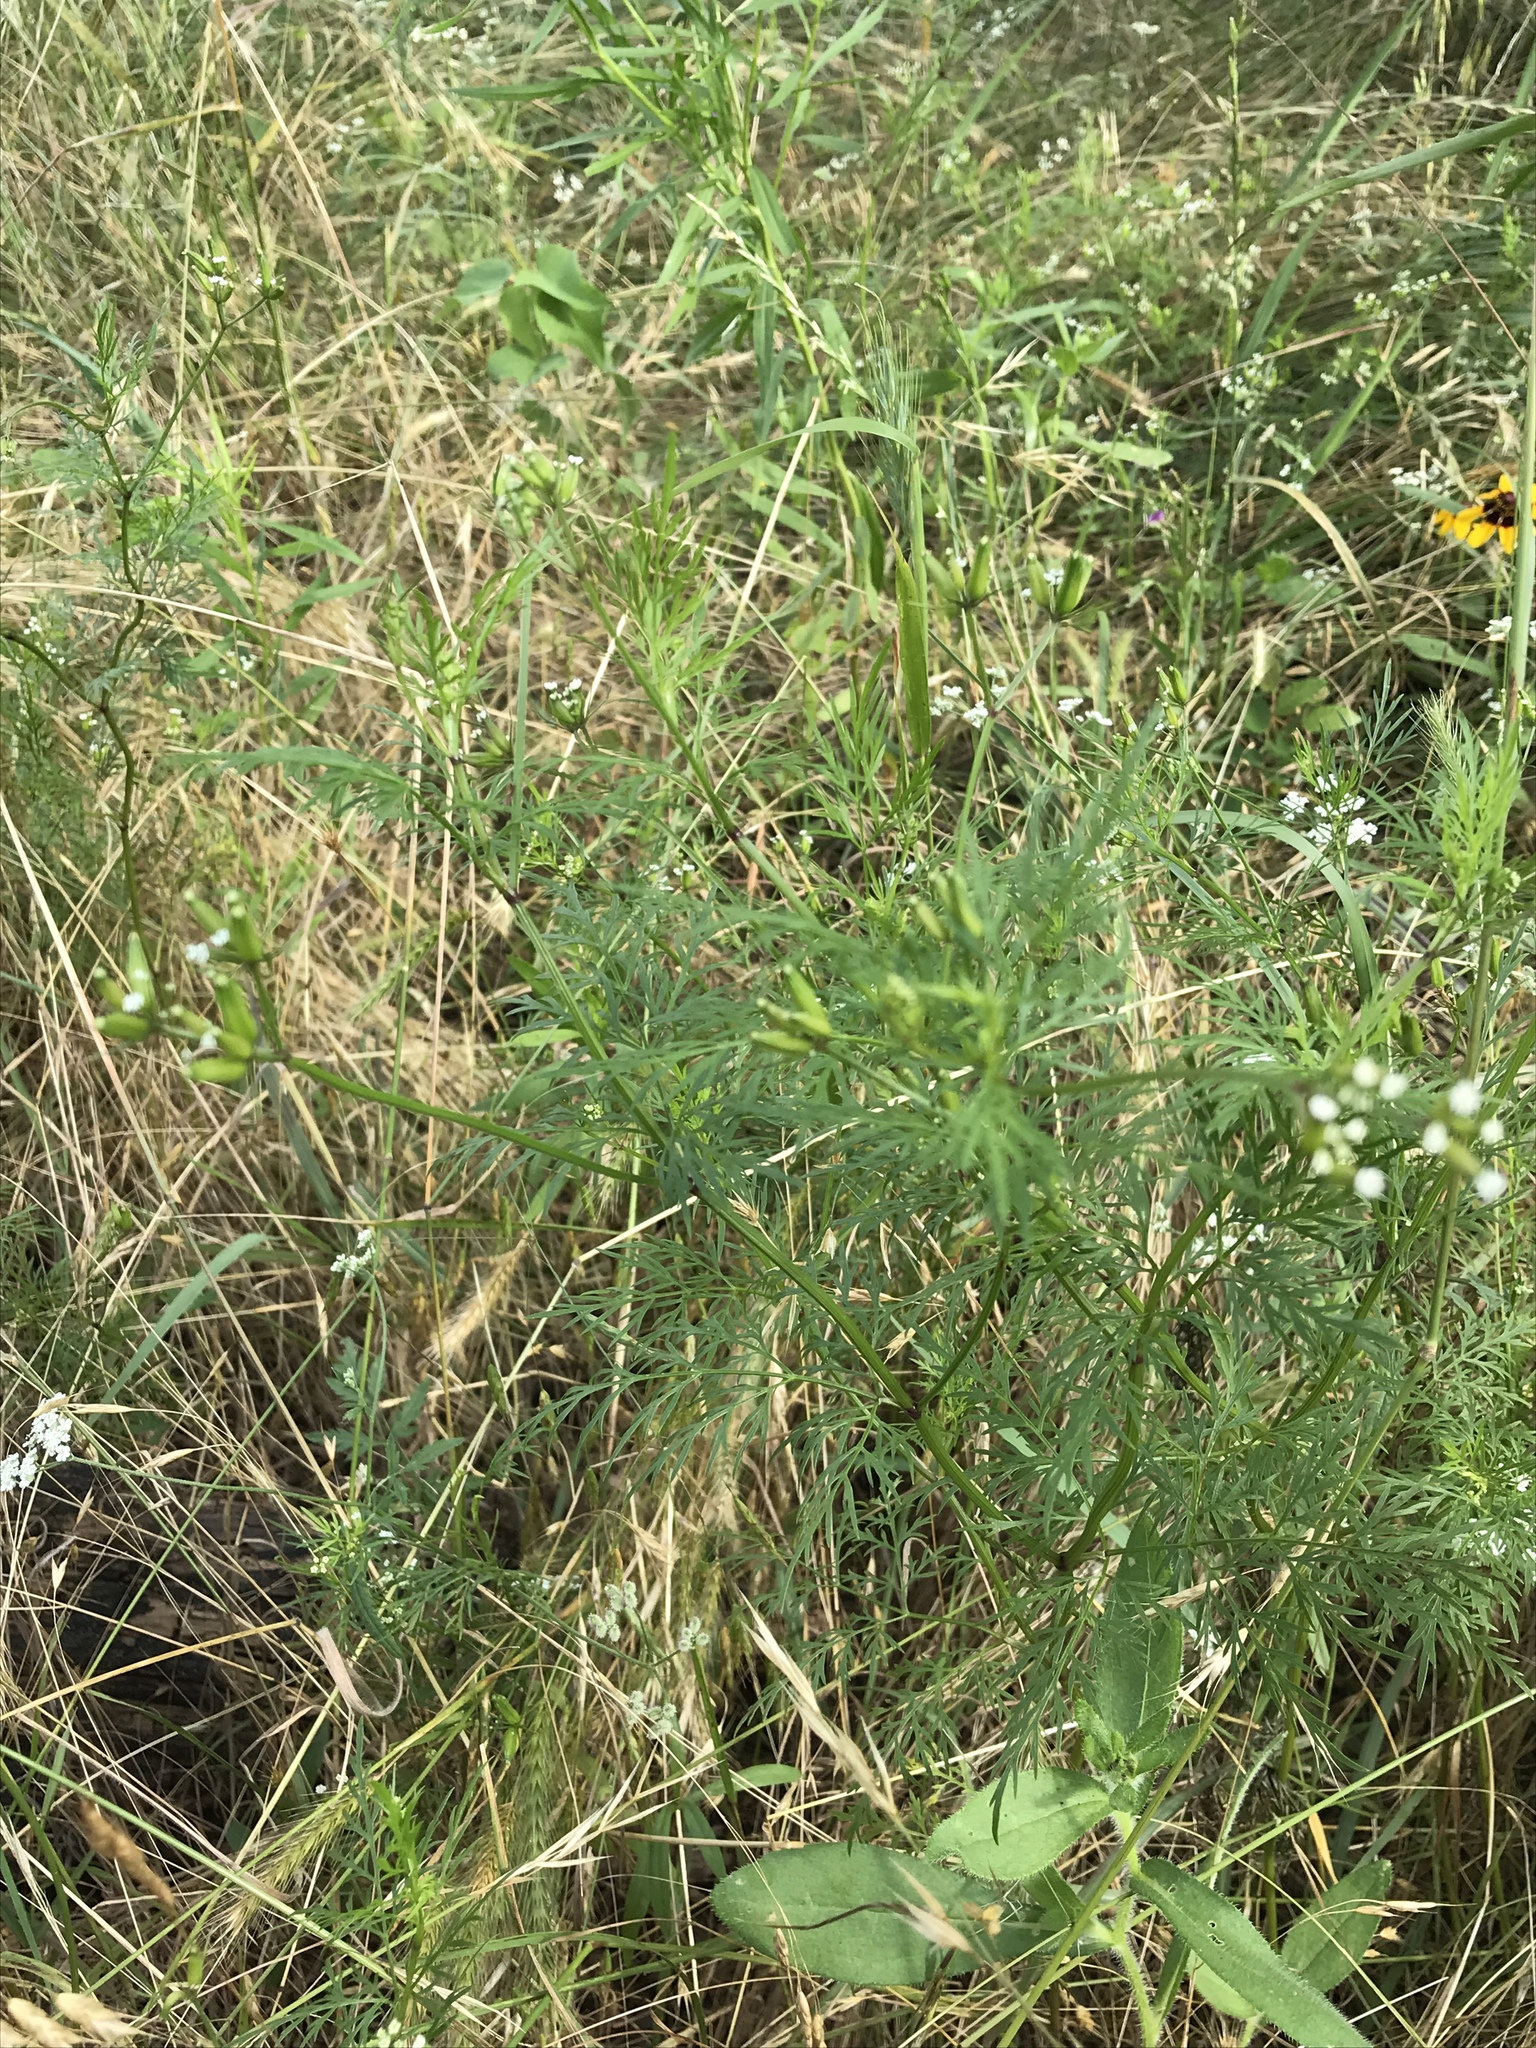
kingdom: Plantae
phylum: Tracheophyta
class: Magnoliopsida
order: Apiales
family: Apiaceae
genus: Trepocarpus
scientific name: Trepocarpus aethusae
